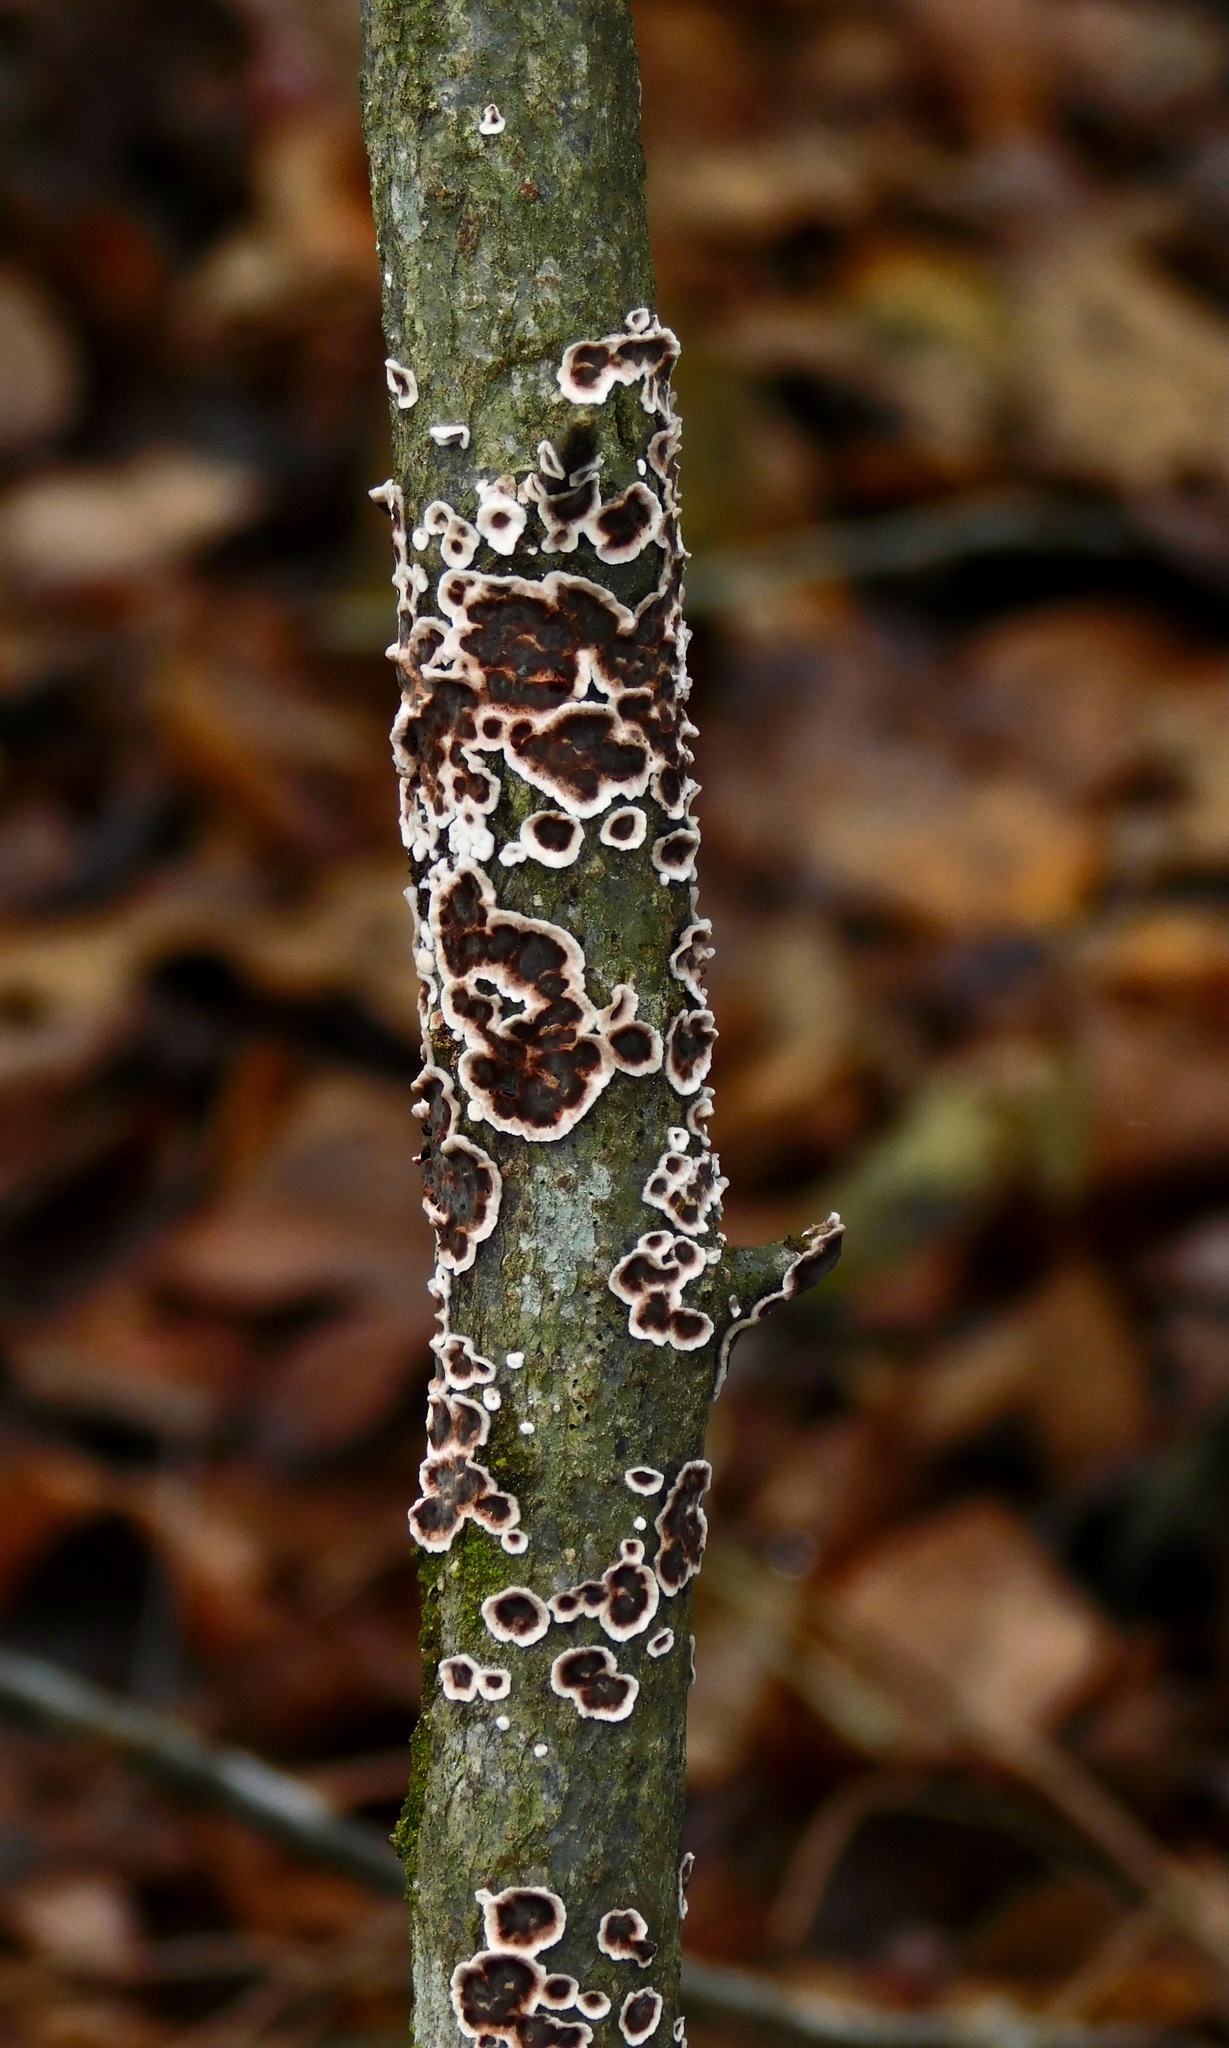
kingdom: Fungi
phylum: Basidiomycota
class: Agaricomycetes
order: Russulales
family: Peniophoraceae
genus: Peniophora
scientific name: Peniophora albobadia
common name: Giraffe spots
